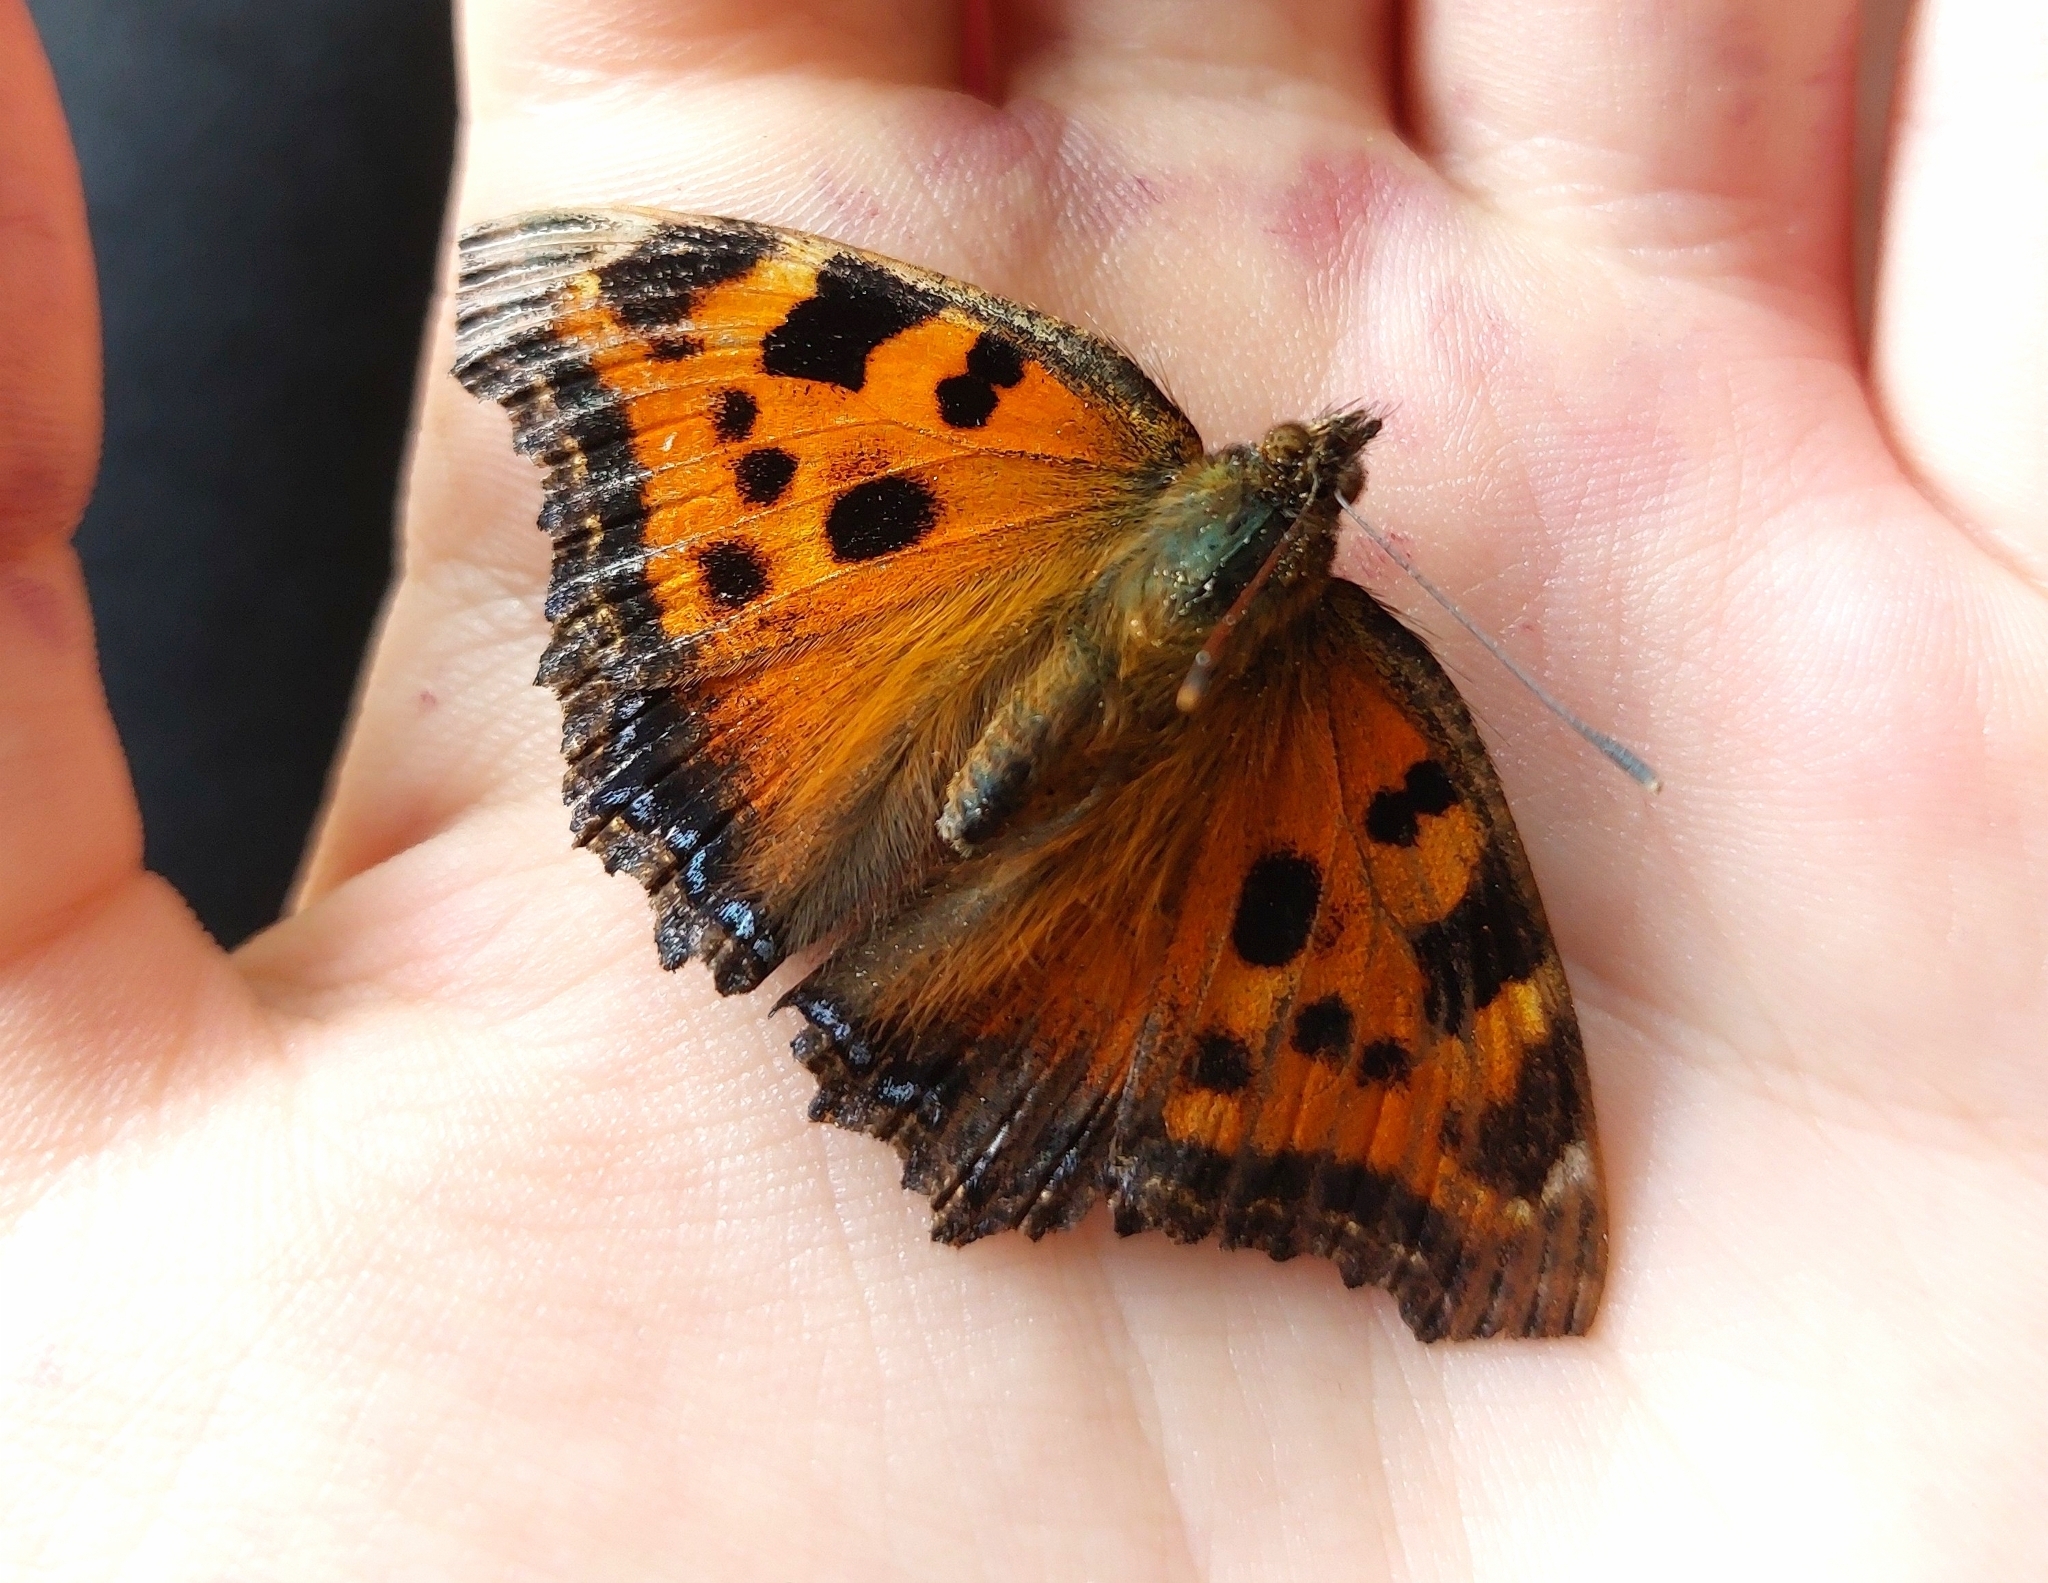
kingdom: Animalia
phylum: Arthropoda
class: Insecta
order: Lepidoptera
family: Nymphalidae
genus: Nymphalis
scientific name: Nymphalis xanthomelas
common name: Scarce tortoiseshell
